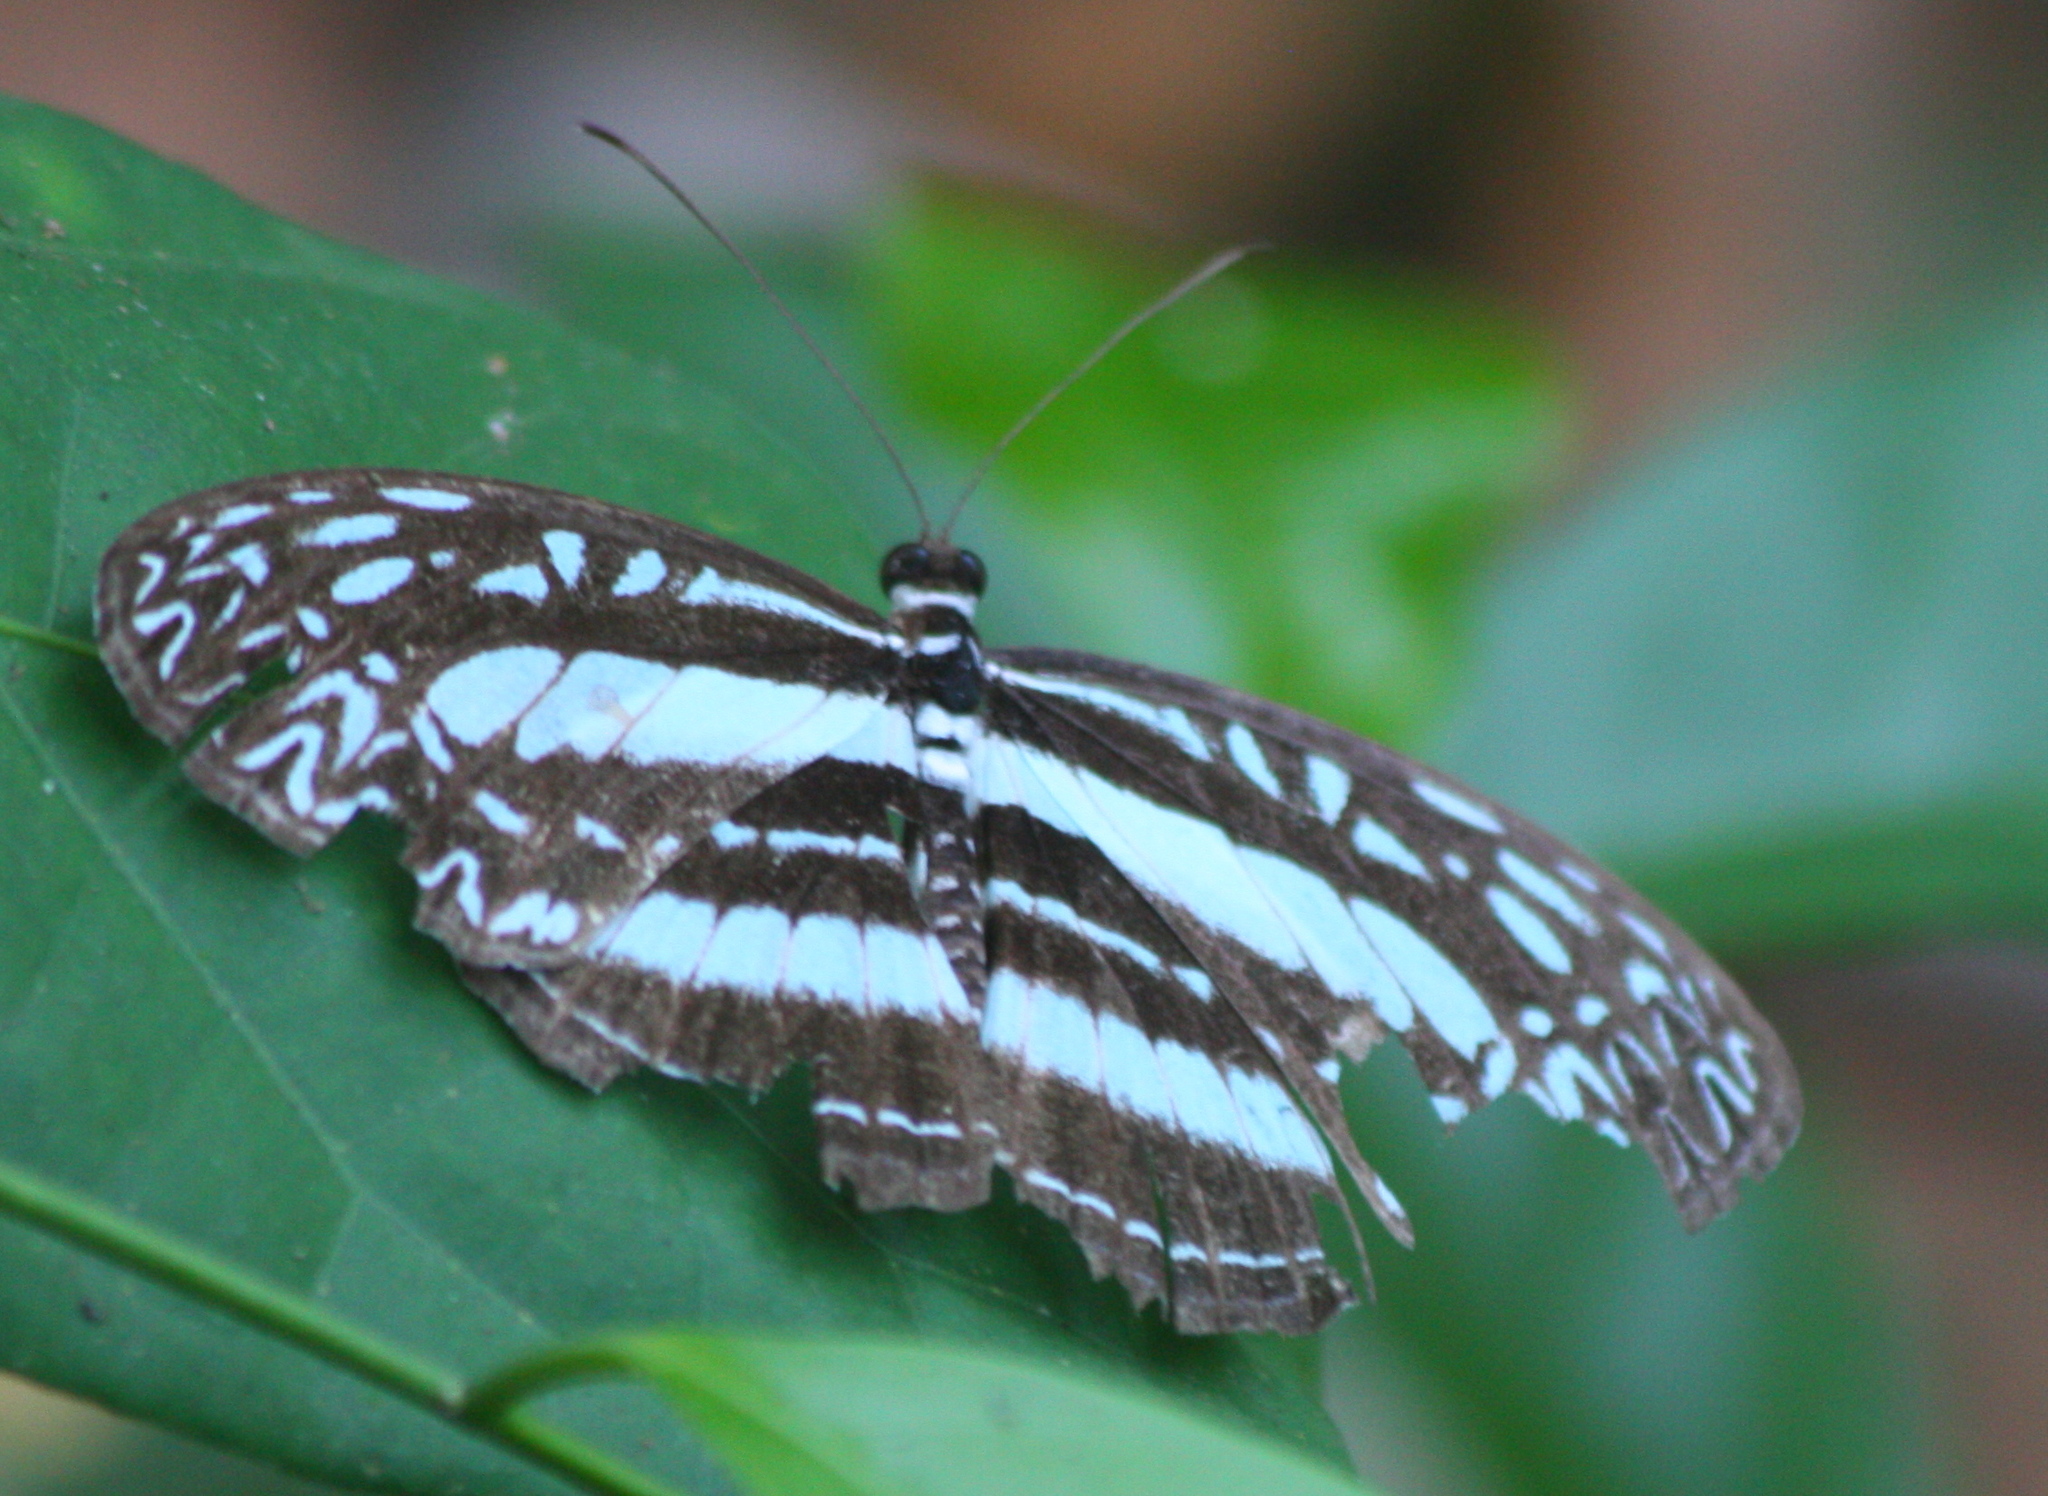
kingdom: Animalia
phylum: Arthropoda
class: Insecta
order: Lepidoptera
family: Nymphalidae
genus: Pseudoneptis
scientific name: Pseudoneptis bugandensis
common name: Blue sailer
